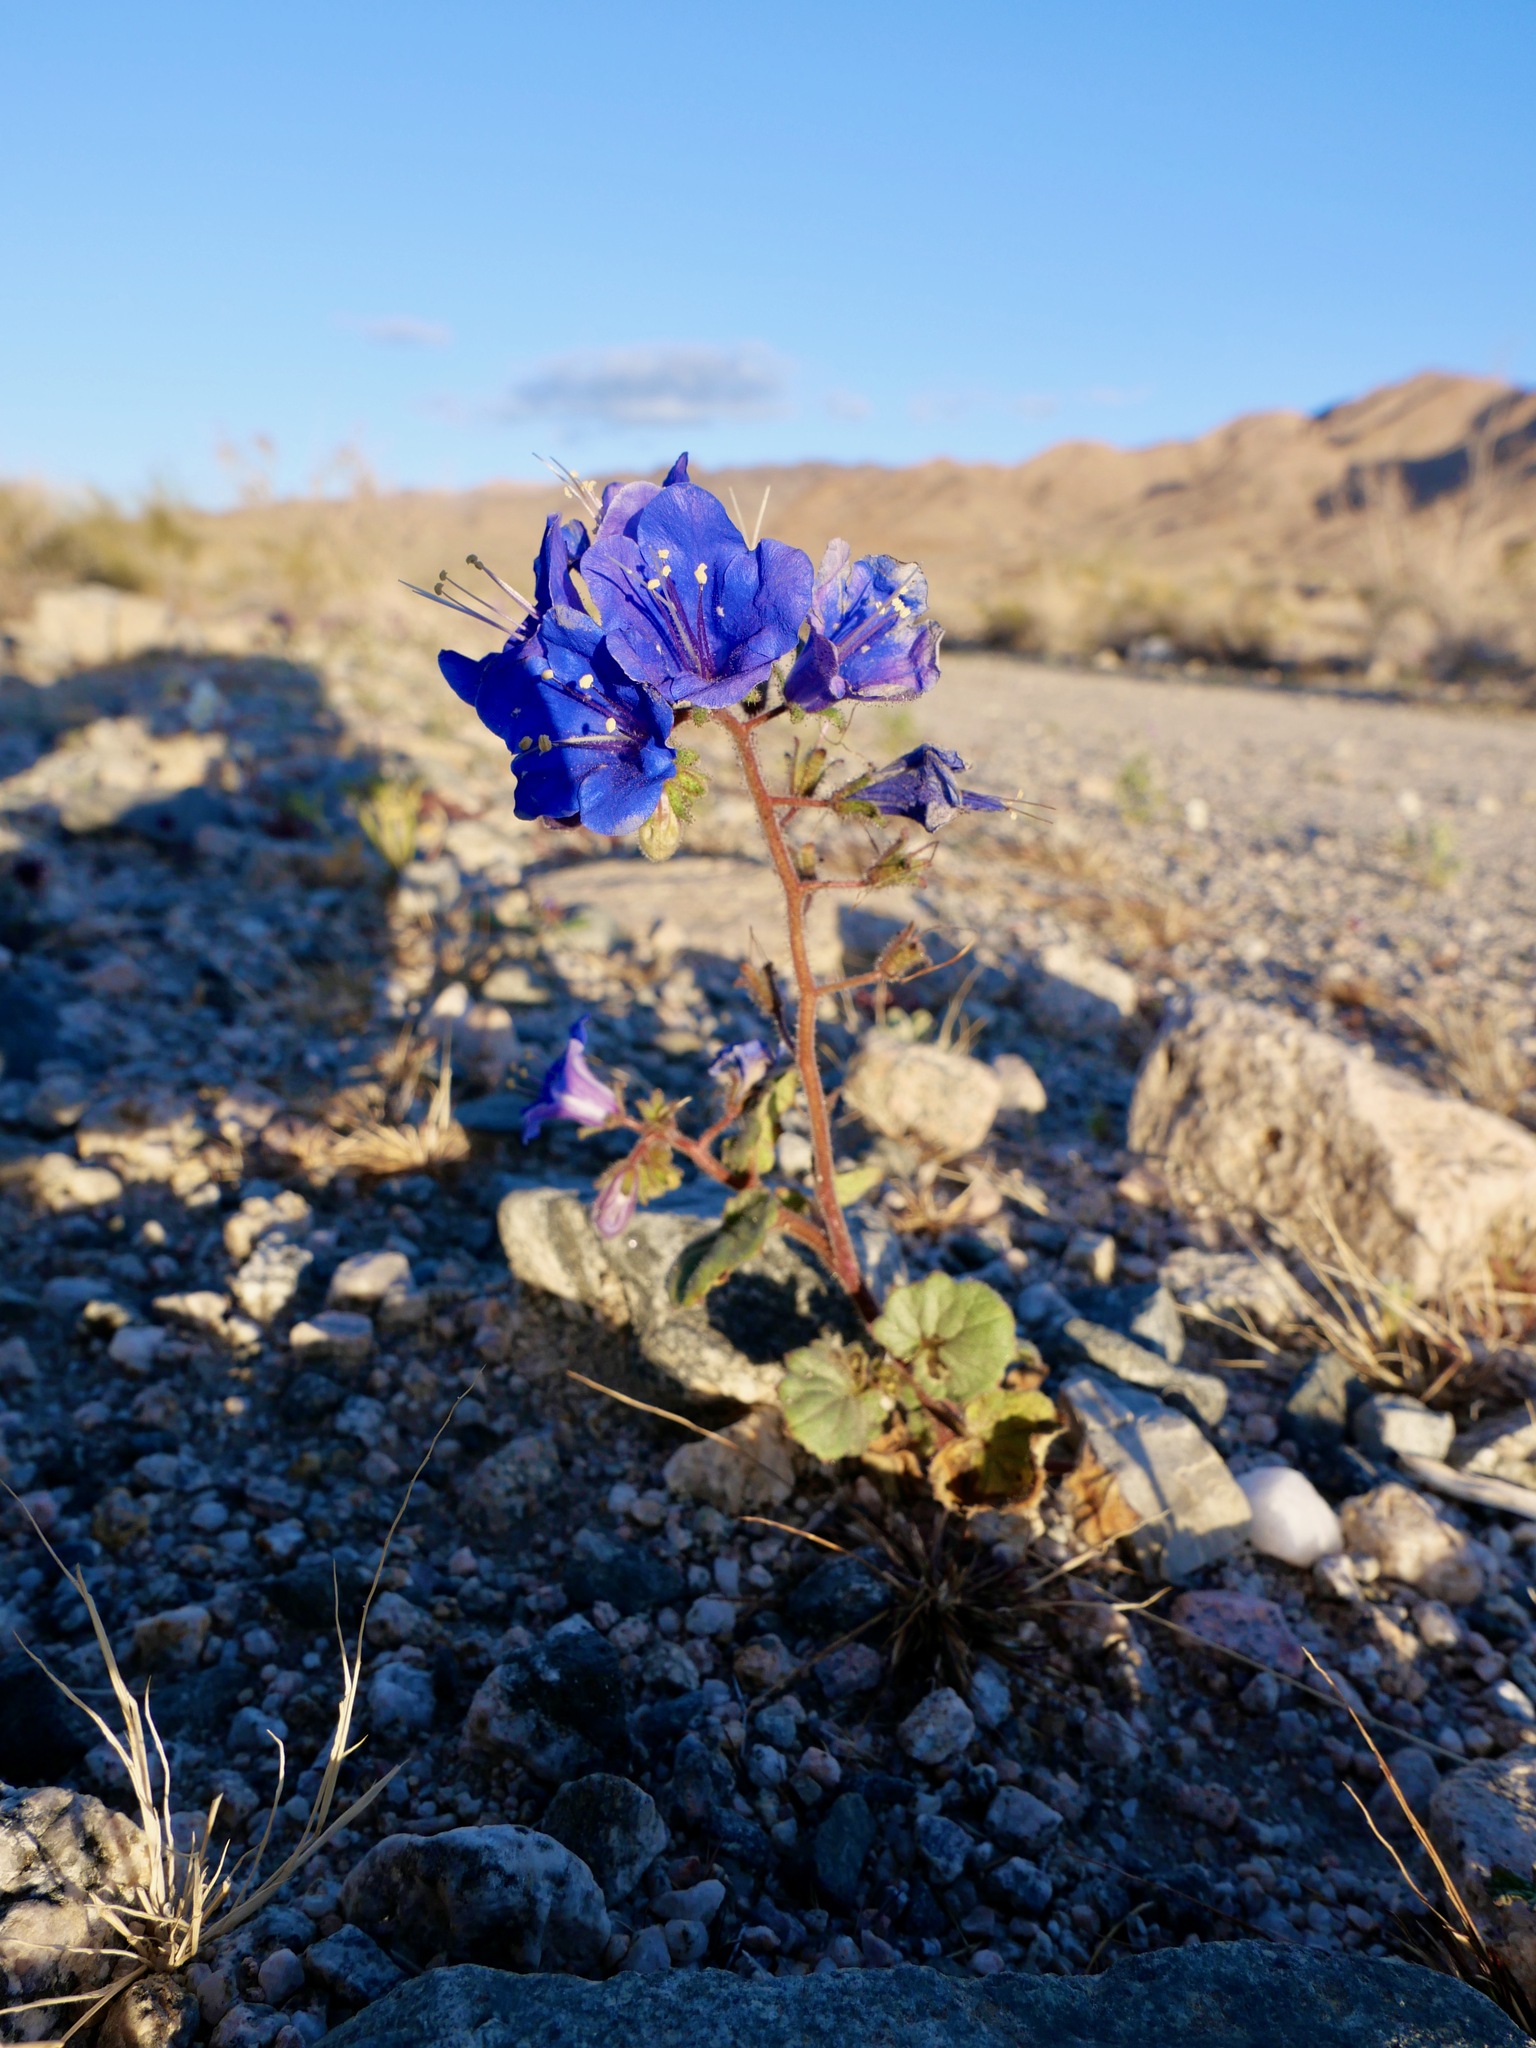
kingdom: Plantae
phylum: Tracheophyta
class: Magnoliopsida
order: Boraginales
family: Hydrophyllaceae
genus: Phacelia
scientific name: Phacelia campanularia
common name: California bluebell
